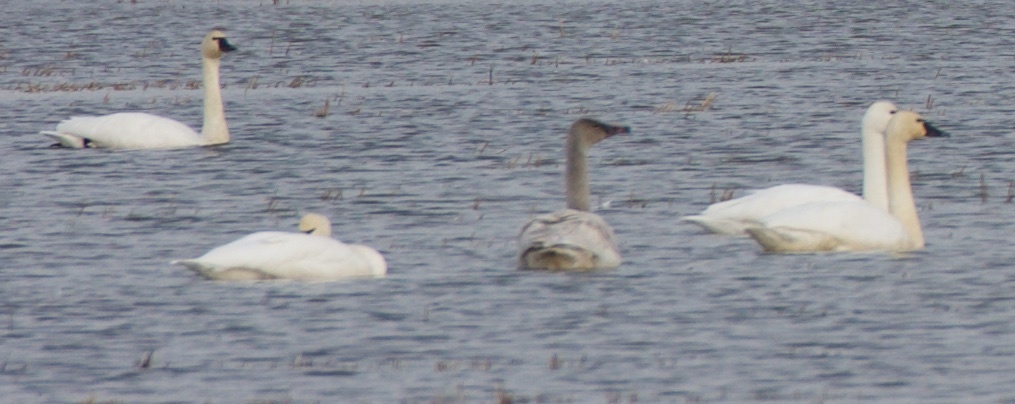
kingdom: Animalia
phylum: Chordata
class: Aves
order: Anseriformes
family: Anatidae
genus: Cygnus
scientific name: Cygnus columbianus
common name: Tundra swan
